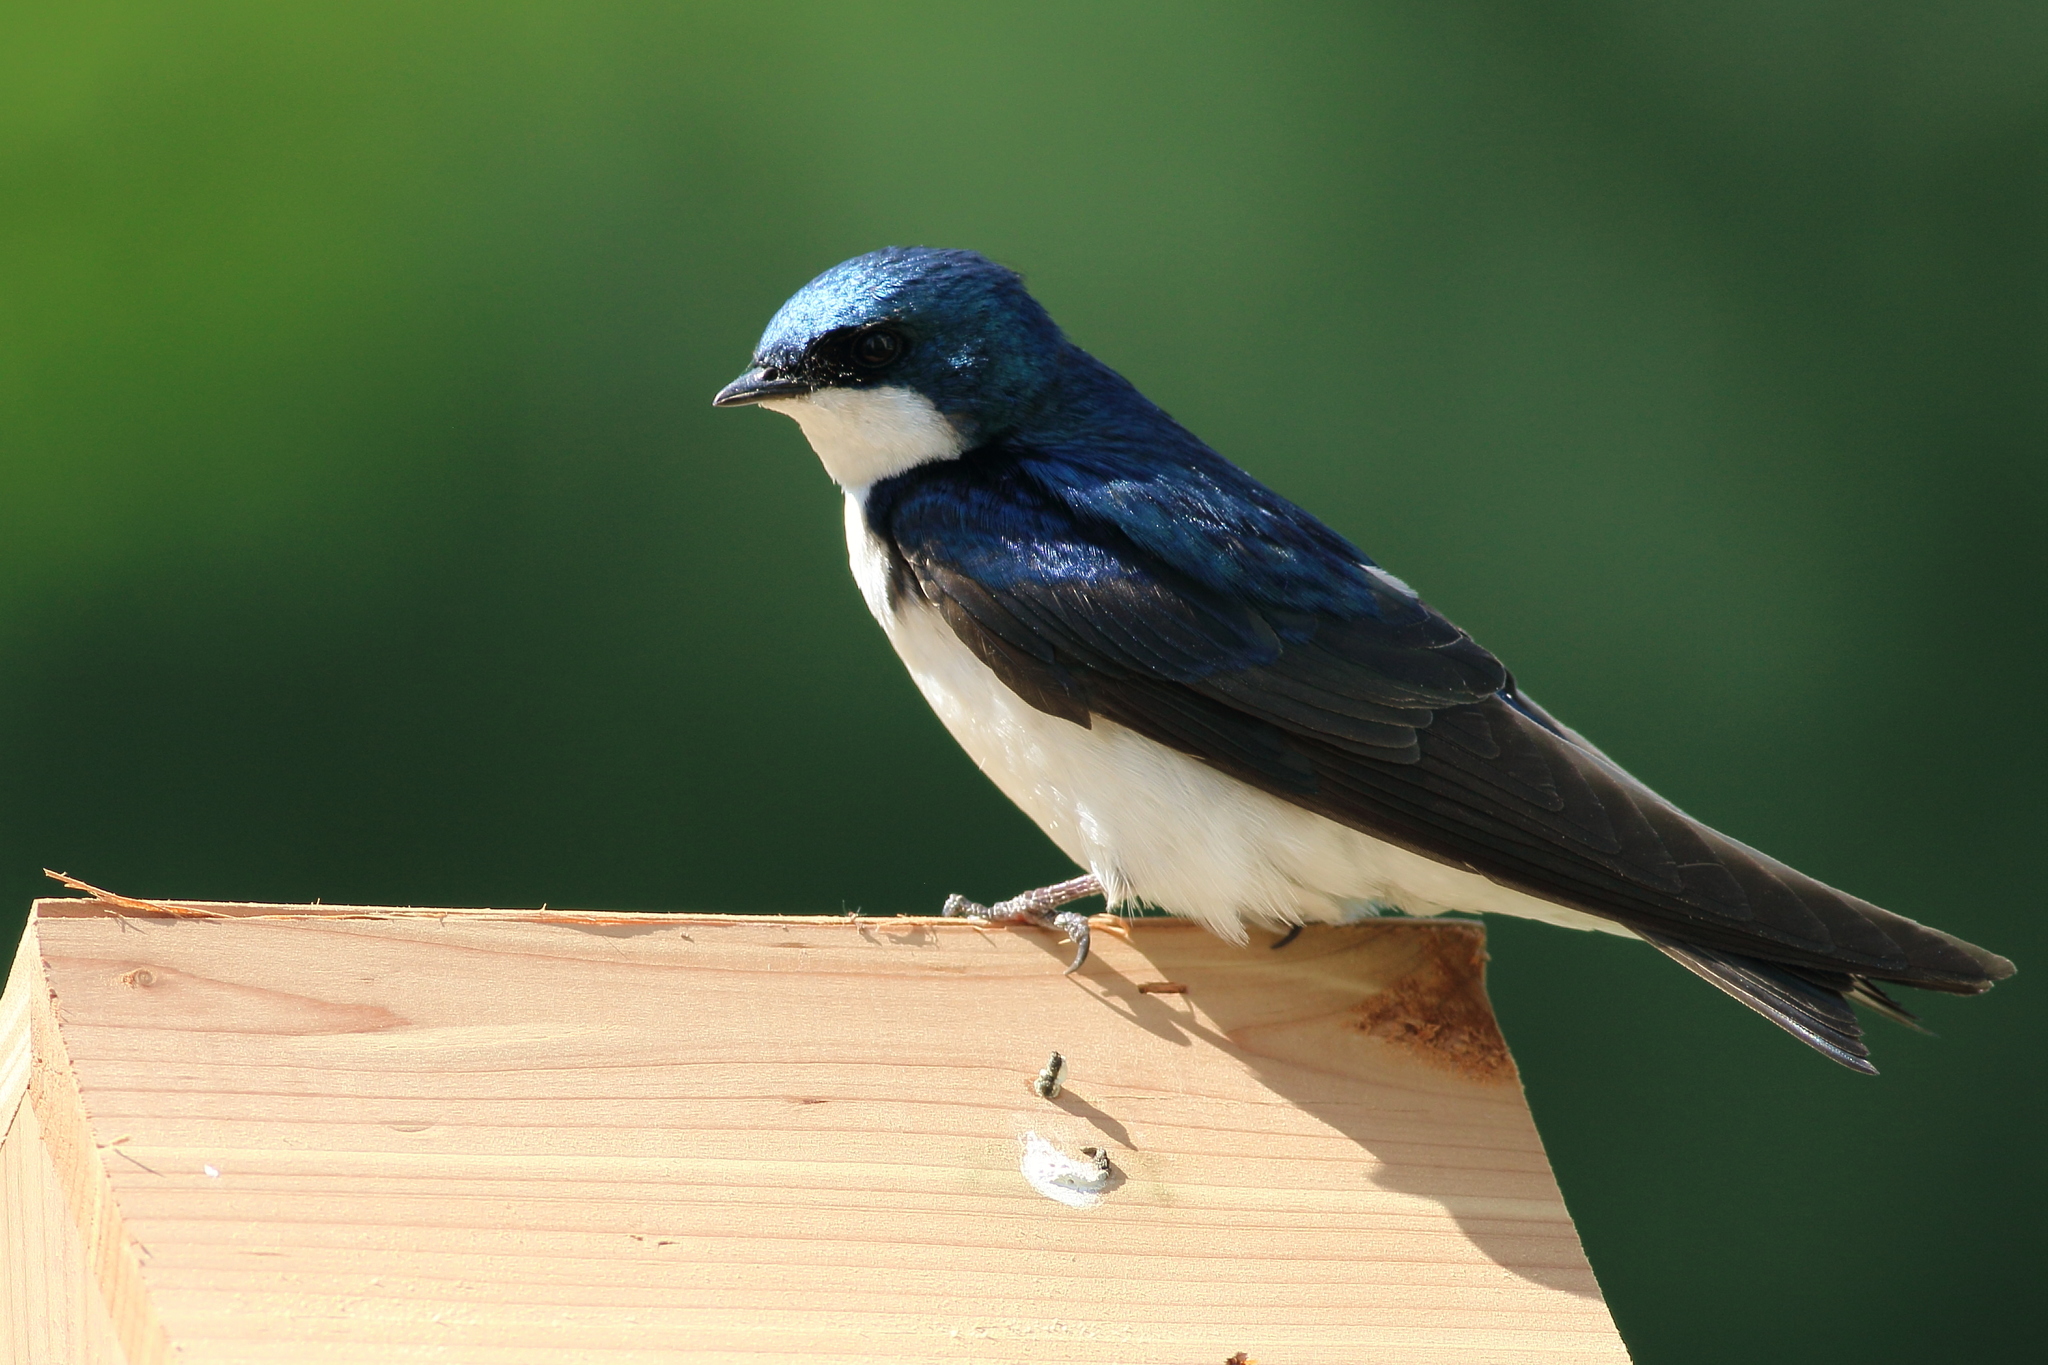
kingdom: Animalia
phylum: Chordata
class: Aves
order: Passeriformes
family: Hirundinidae
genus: Tachycineta
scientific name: Tachycineta bicolor
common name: Tree swallow
